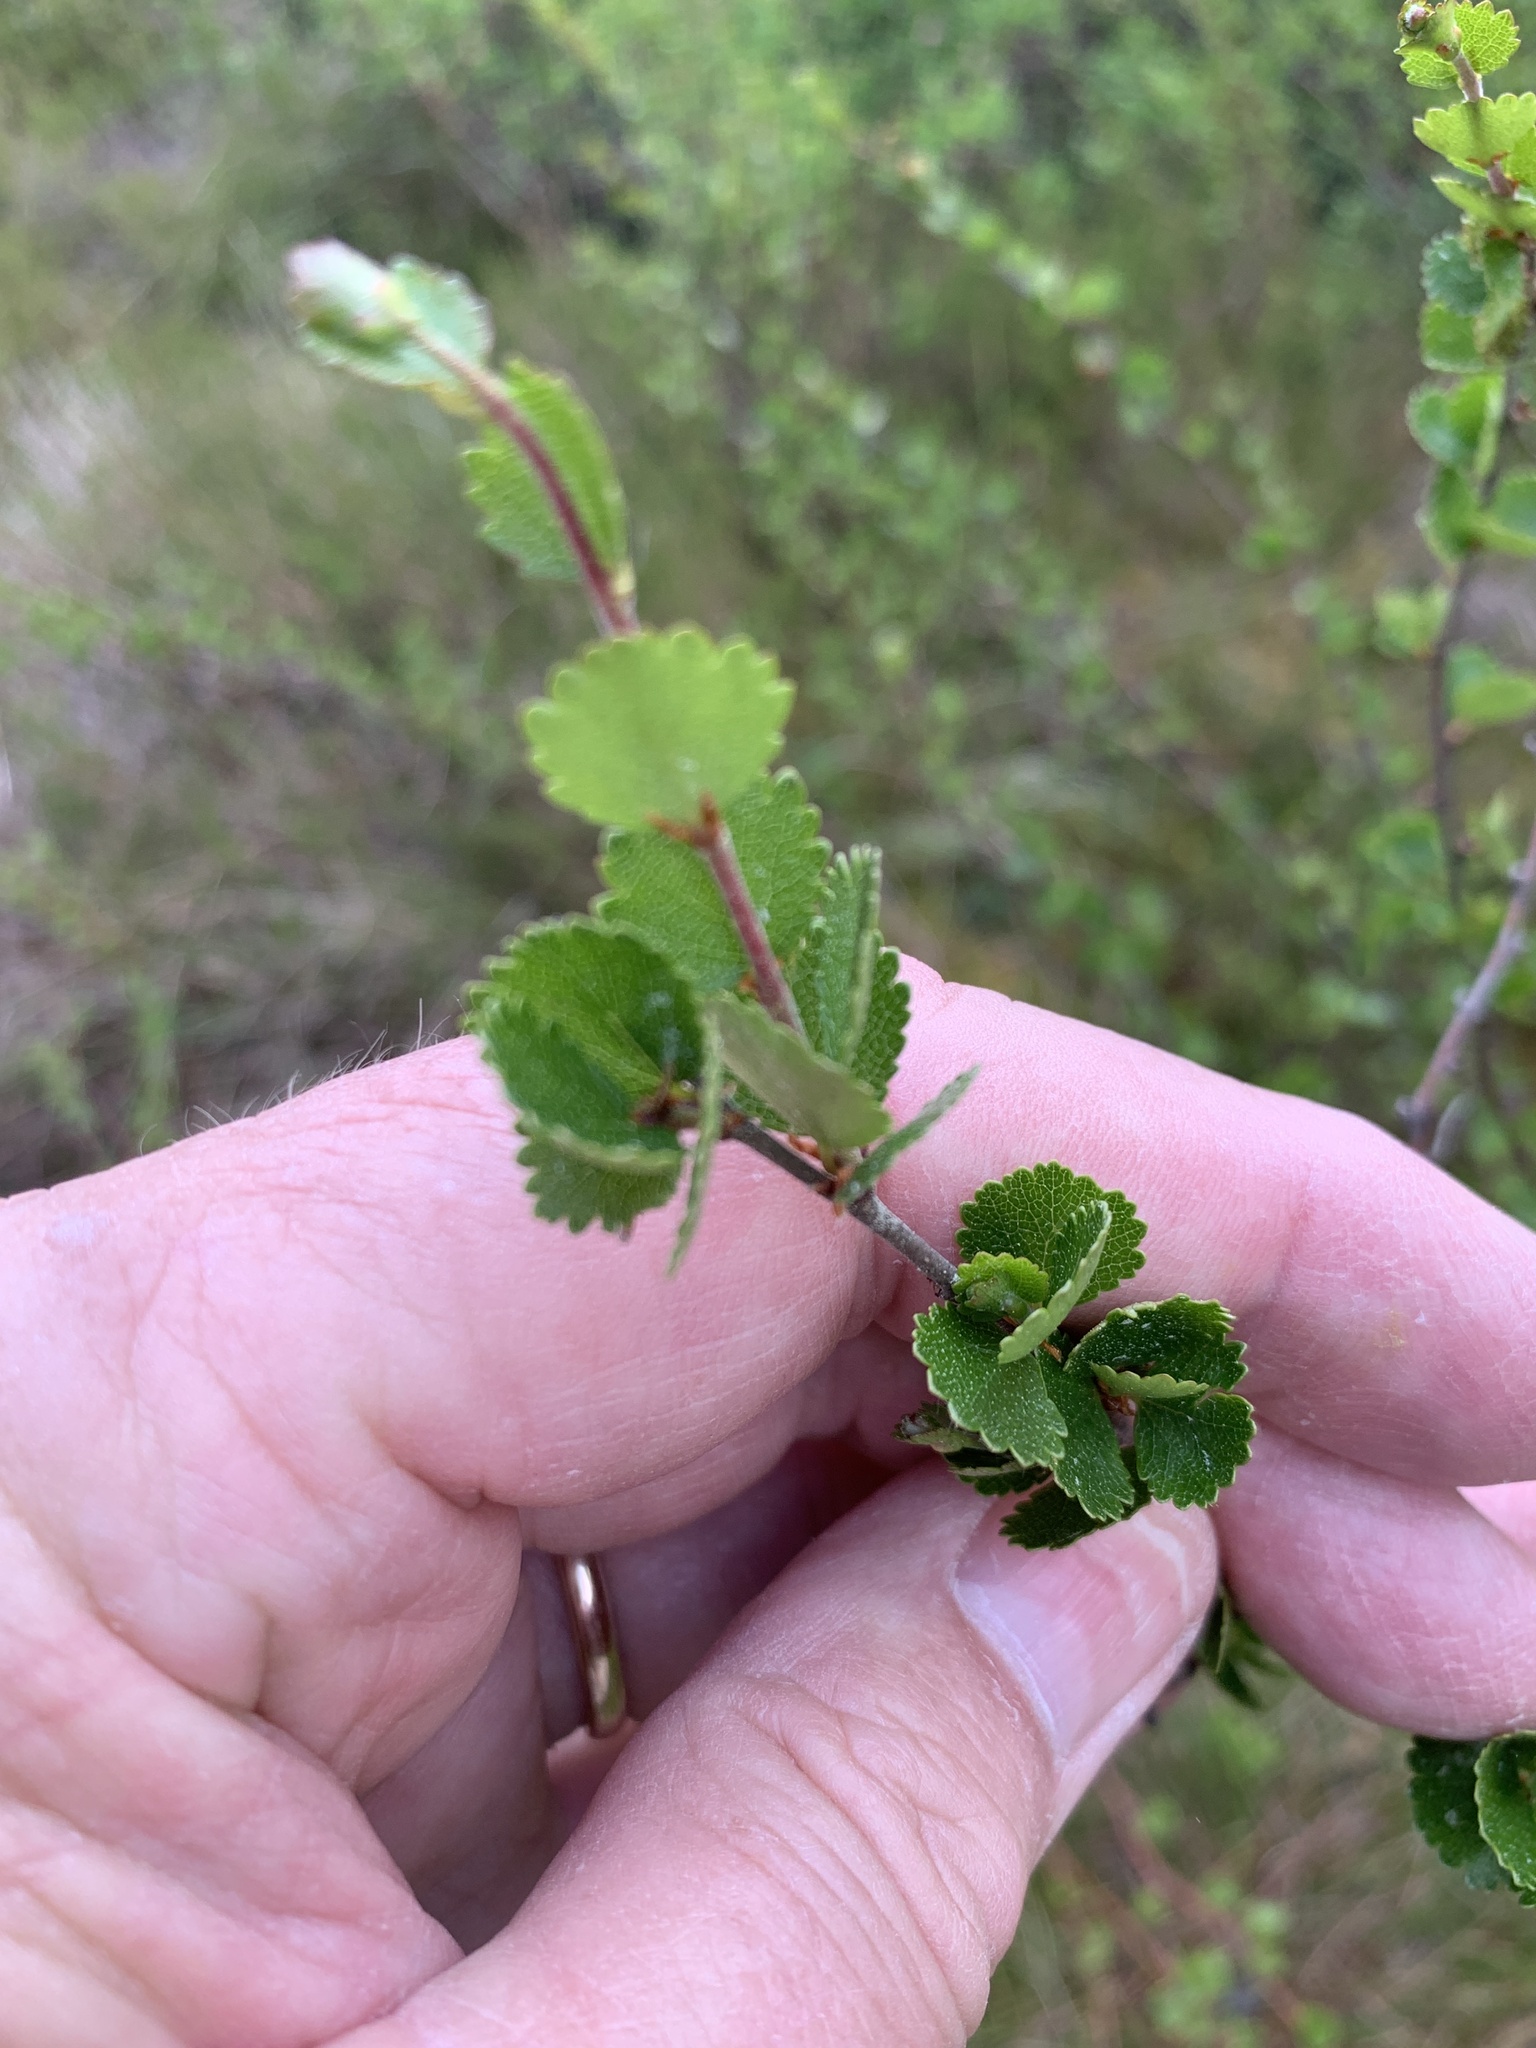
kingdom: Plantae
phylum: Tracheophyta
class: Magnoliopsida
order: Fagales
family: Betulaceae
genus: Betula
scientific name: Betula nana
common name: Arctic dwarf birch
